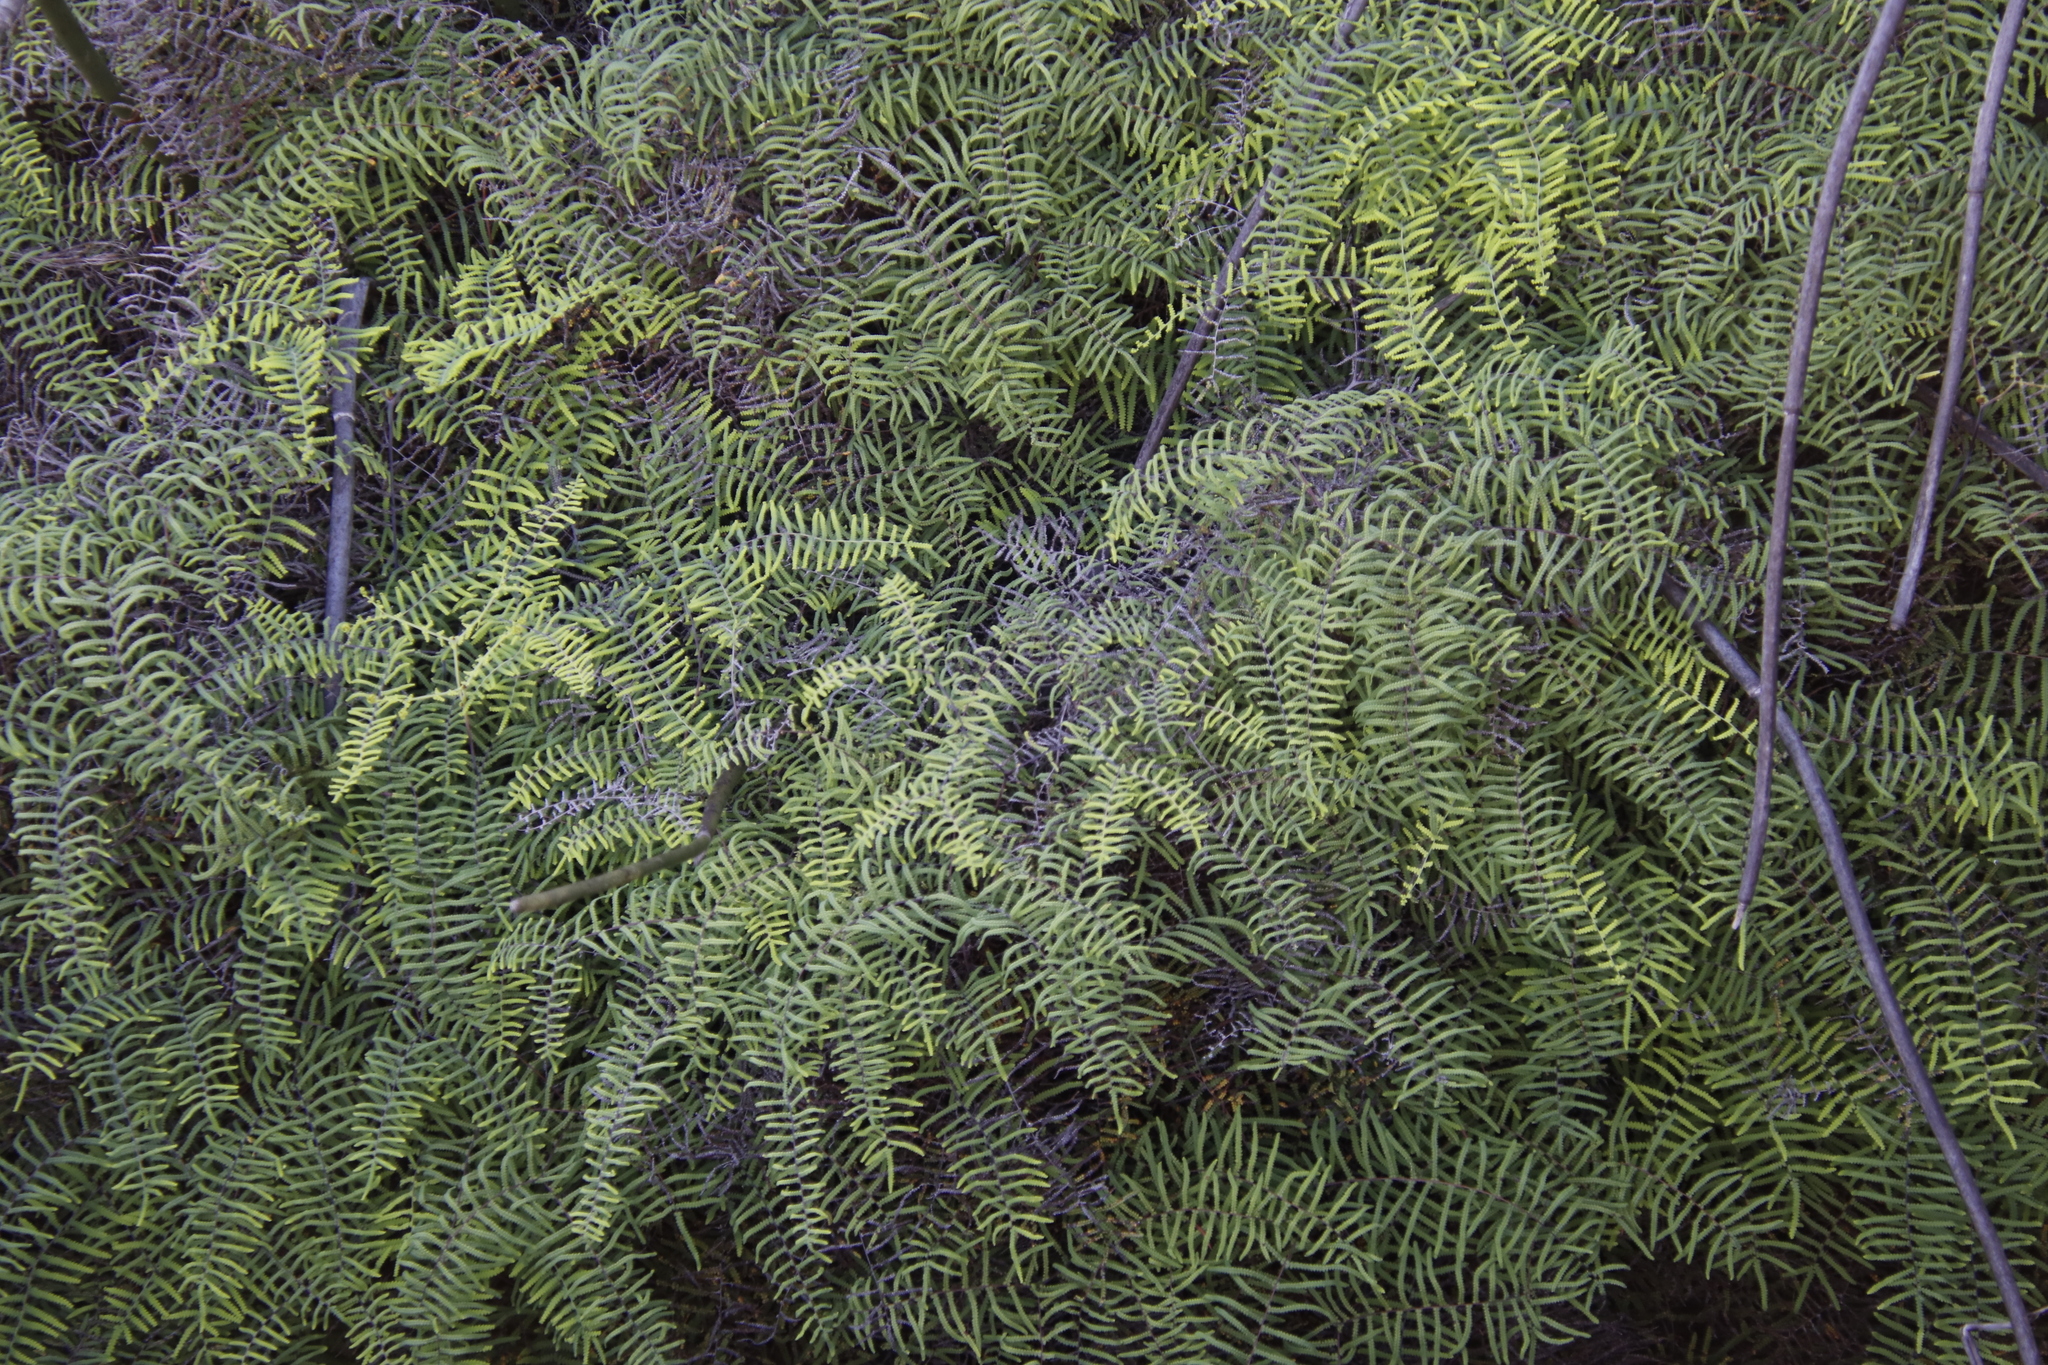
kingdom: Plantae
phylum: Tracheophyta
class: Polypodiopsida
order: Gleicheniales
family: Gleicheniaceae
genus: Gleichenia
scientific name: Gleichenia polypodioides
